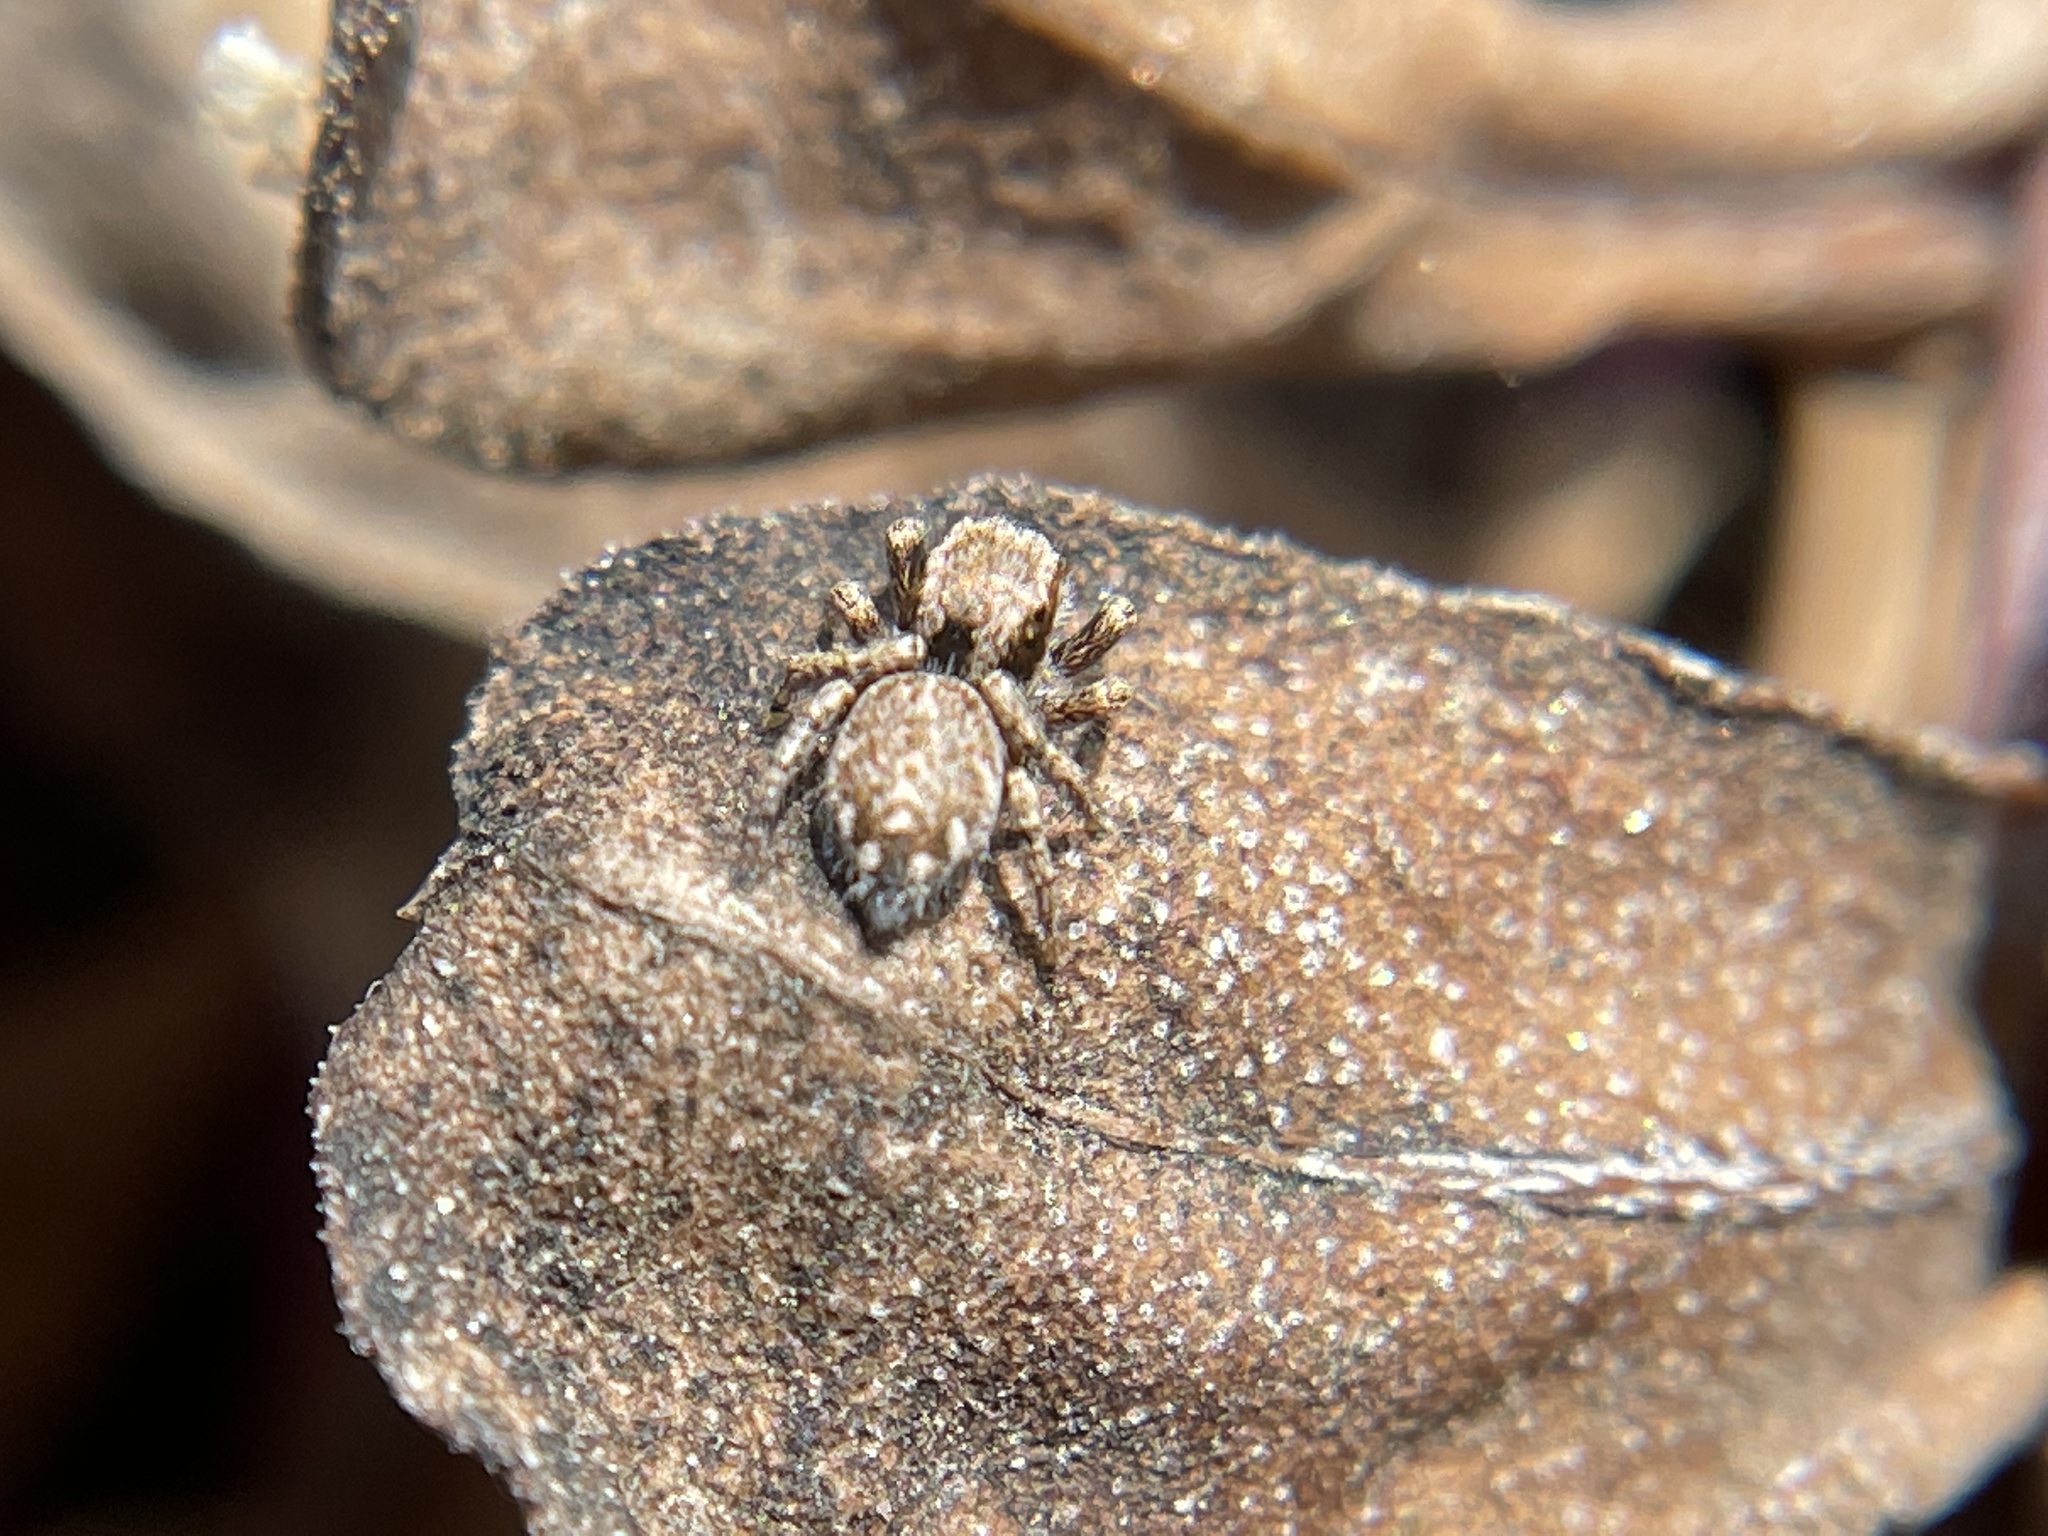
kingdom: Animalia
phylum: Arthropoda
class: Arachnida
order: Araneae
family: Salticidae
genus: Habronattus
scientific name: Habronattus peckhami
